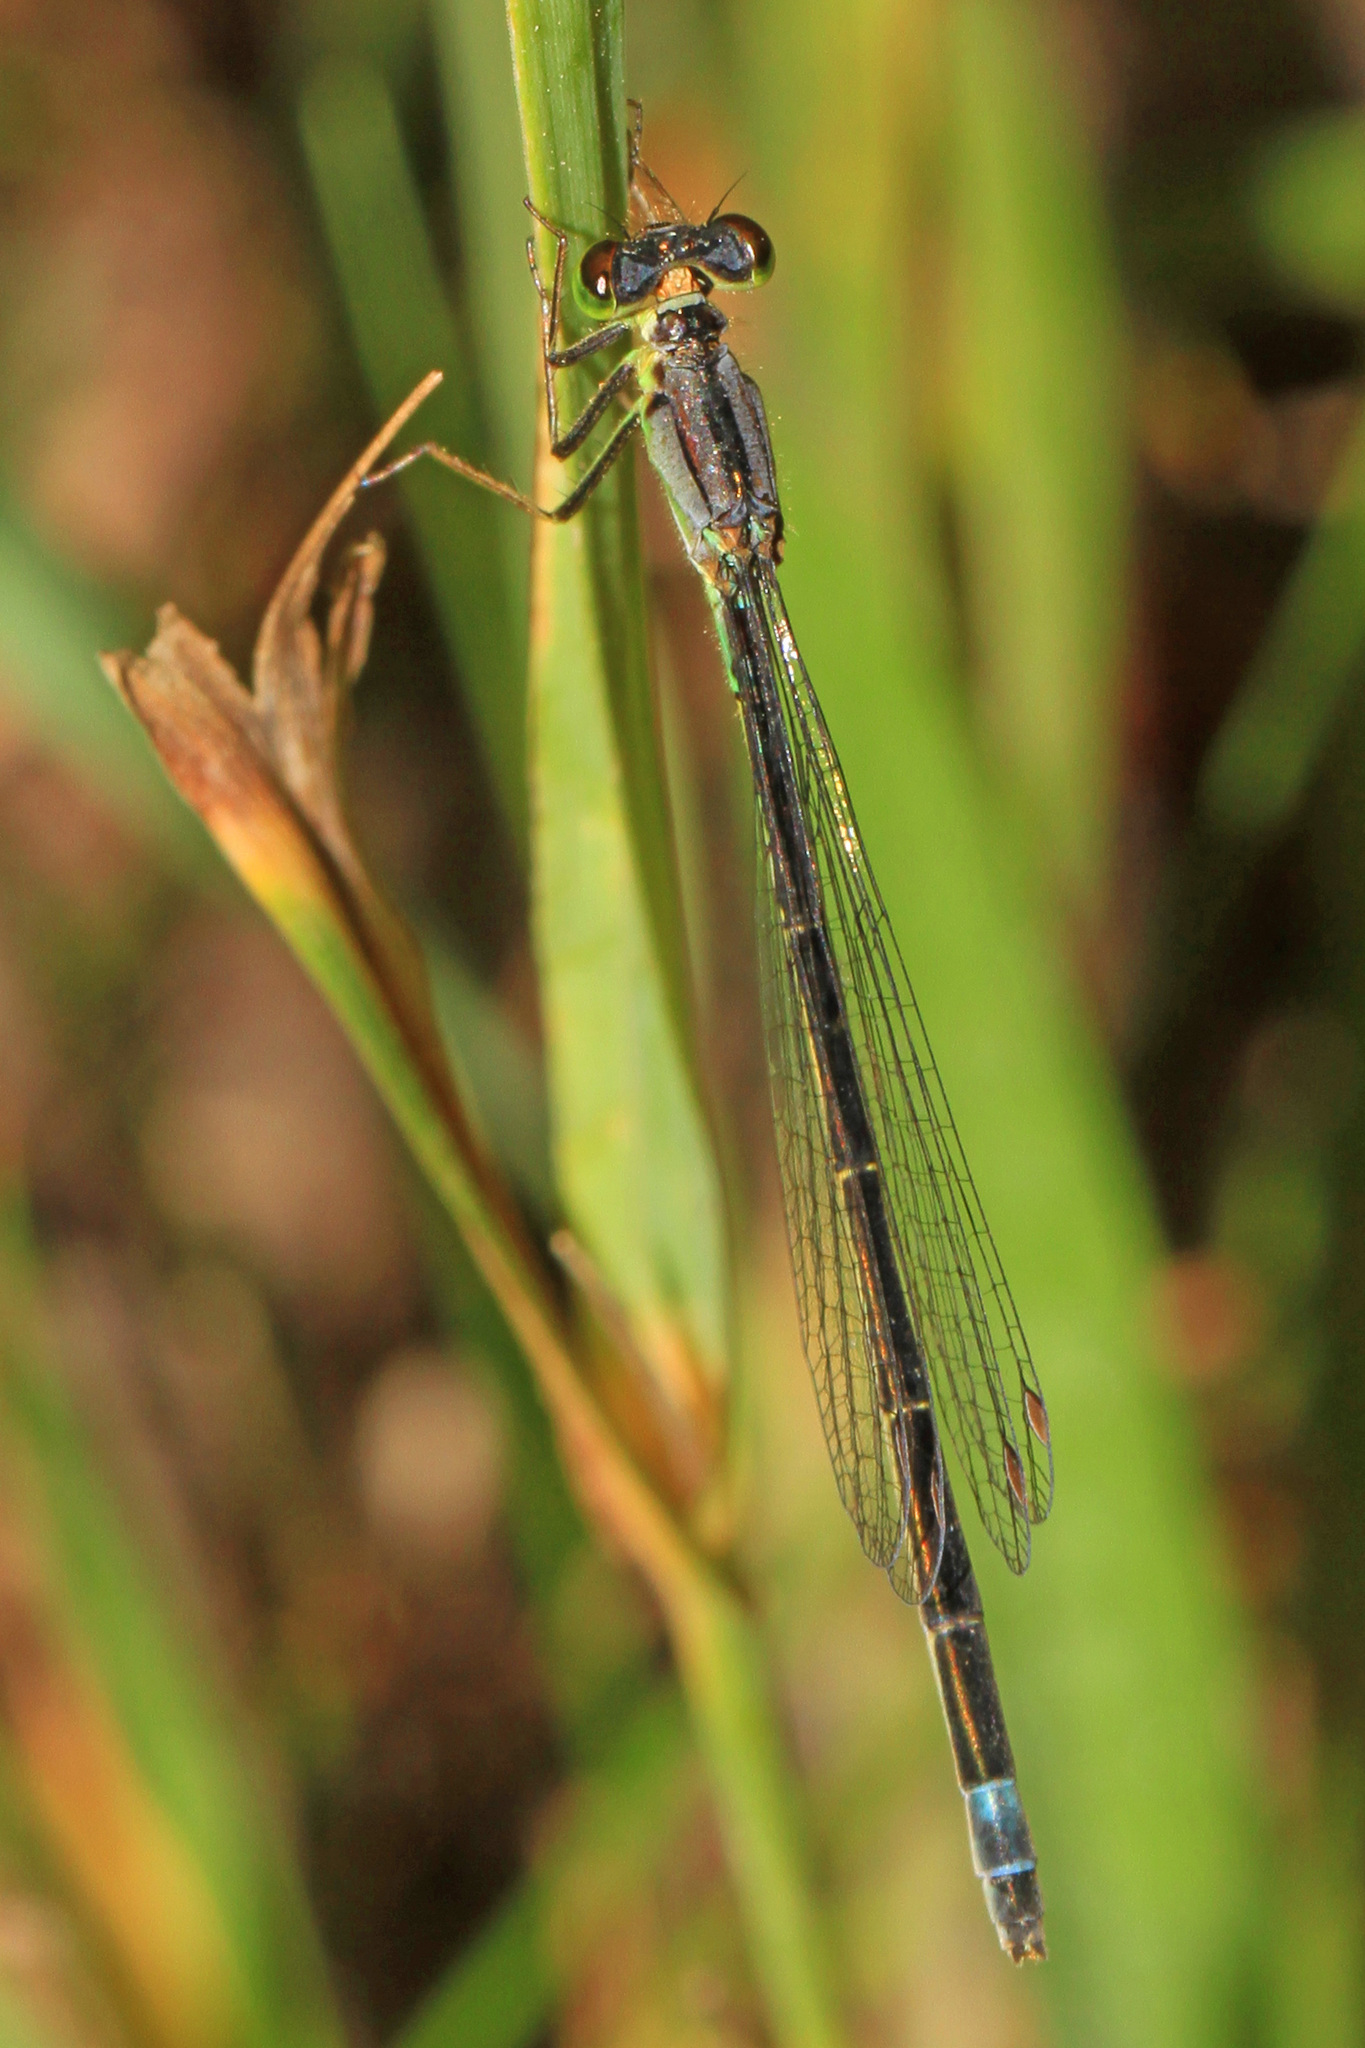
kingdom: Animalia
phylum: Arthropoda
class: Insecta
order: Odonata
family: Coenagrionidae
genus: Ischnura
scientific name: Ischnura cervula
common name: Pacific forktail
